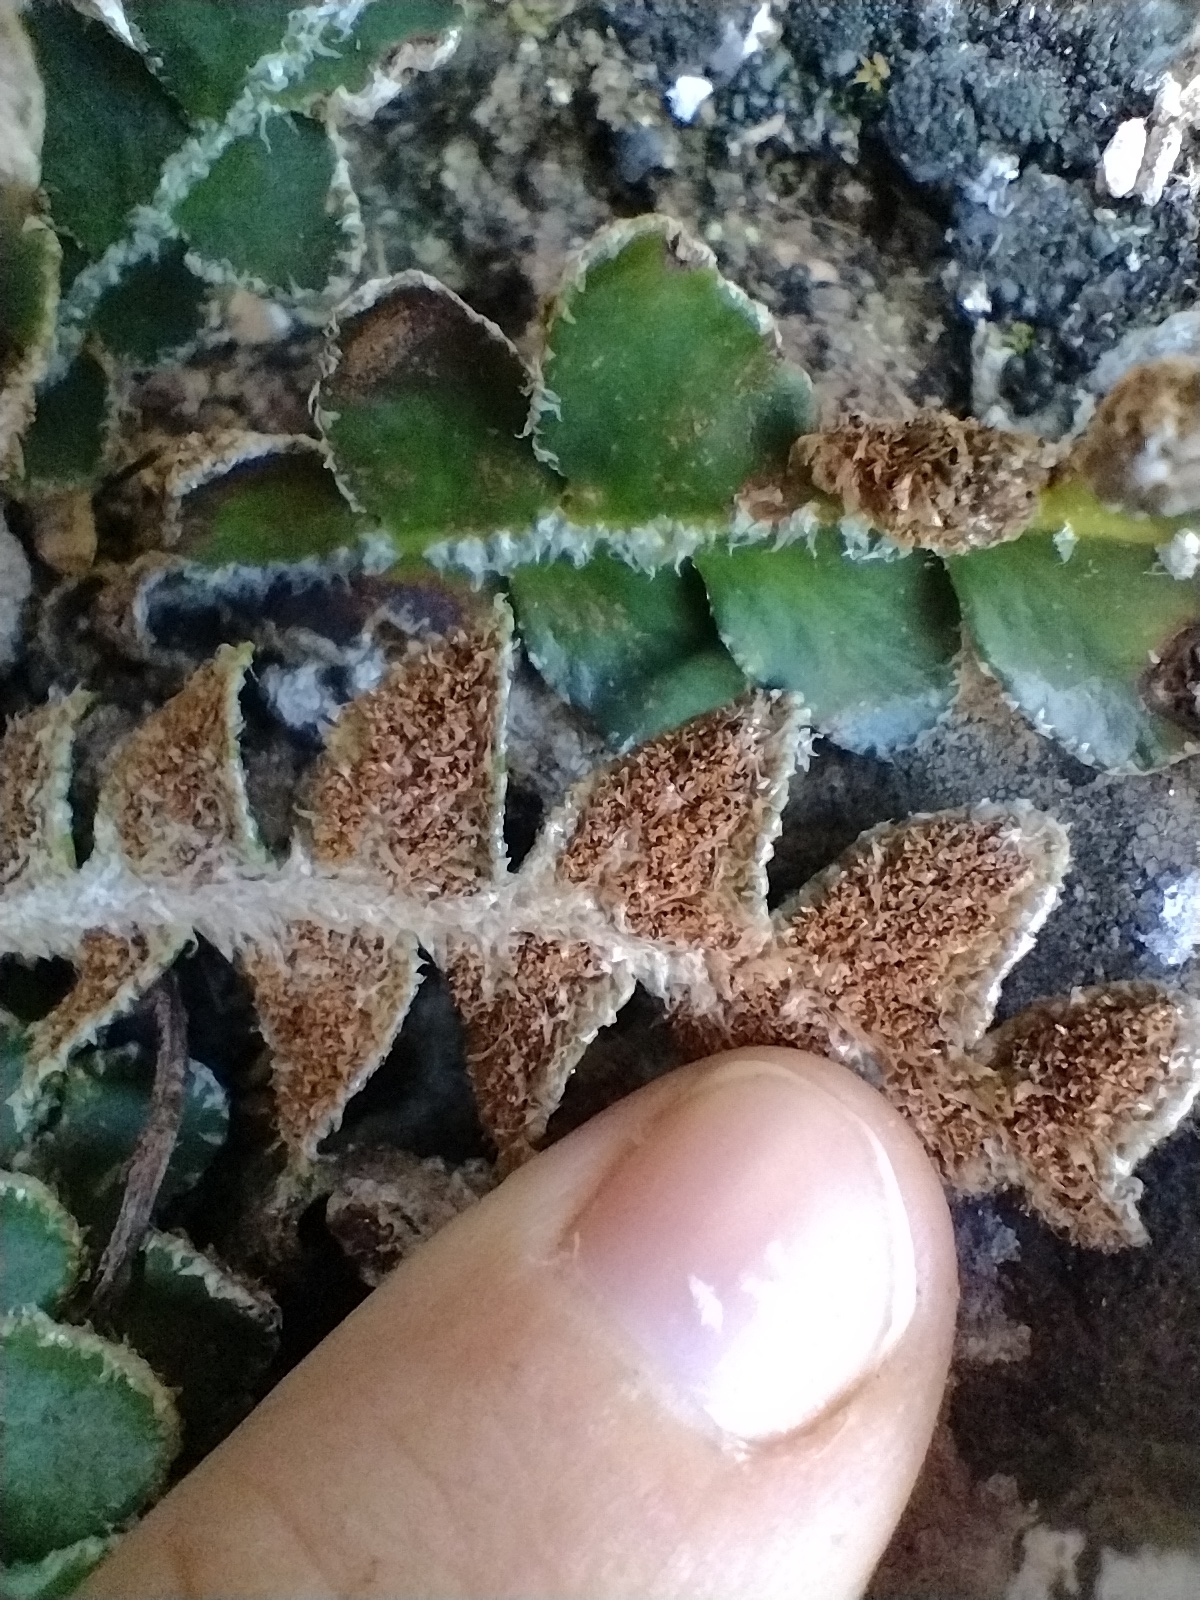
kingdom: Plantae
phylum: Tracheophyta
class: Polypodiopsida
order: Polypodiales
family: Aspleniaceae
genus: Asplenium
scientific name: Asplenium ceterach
